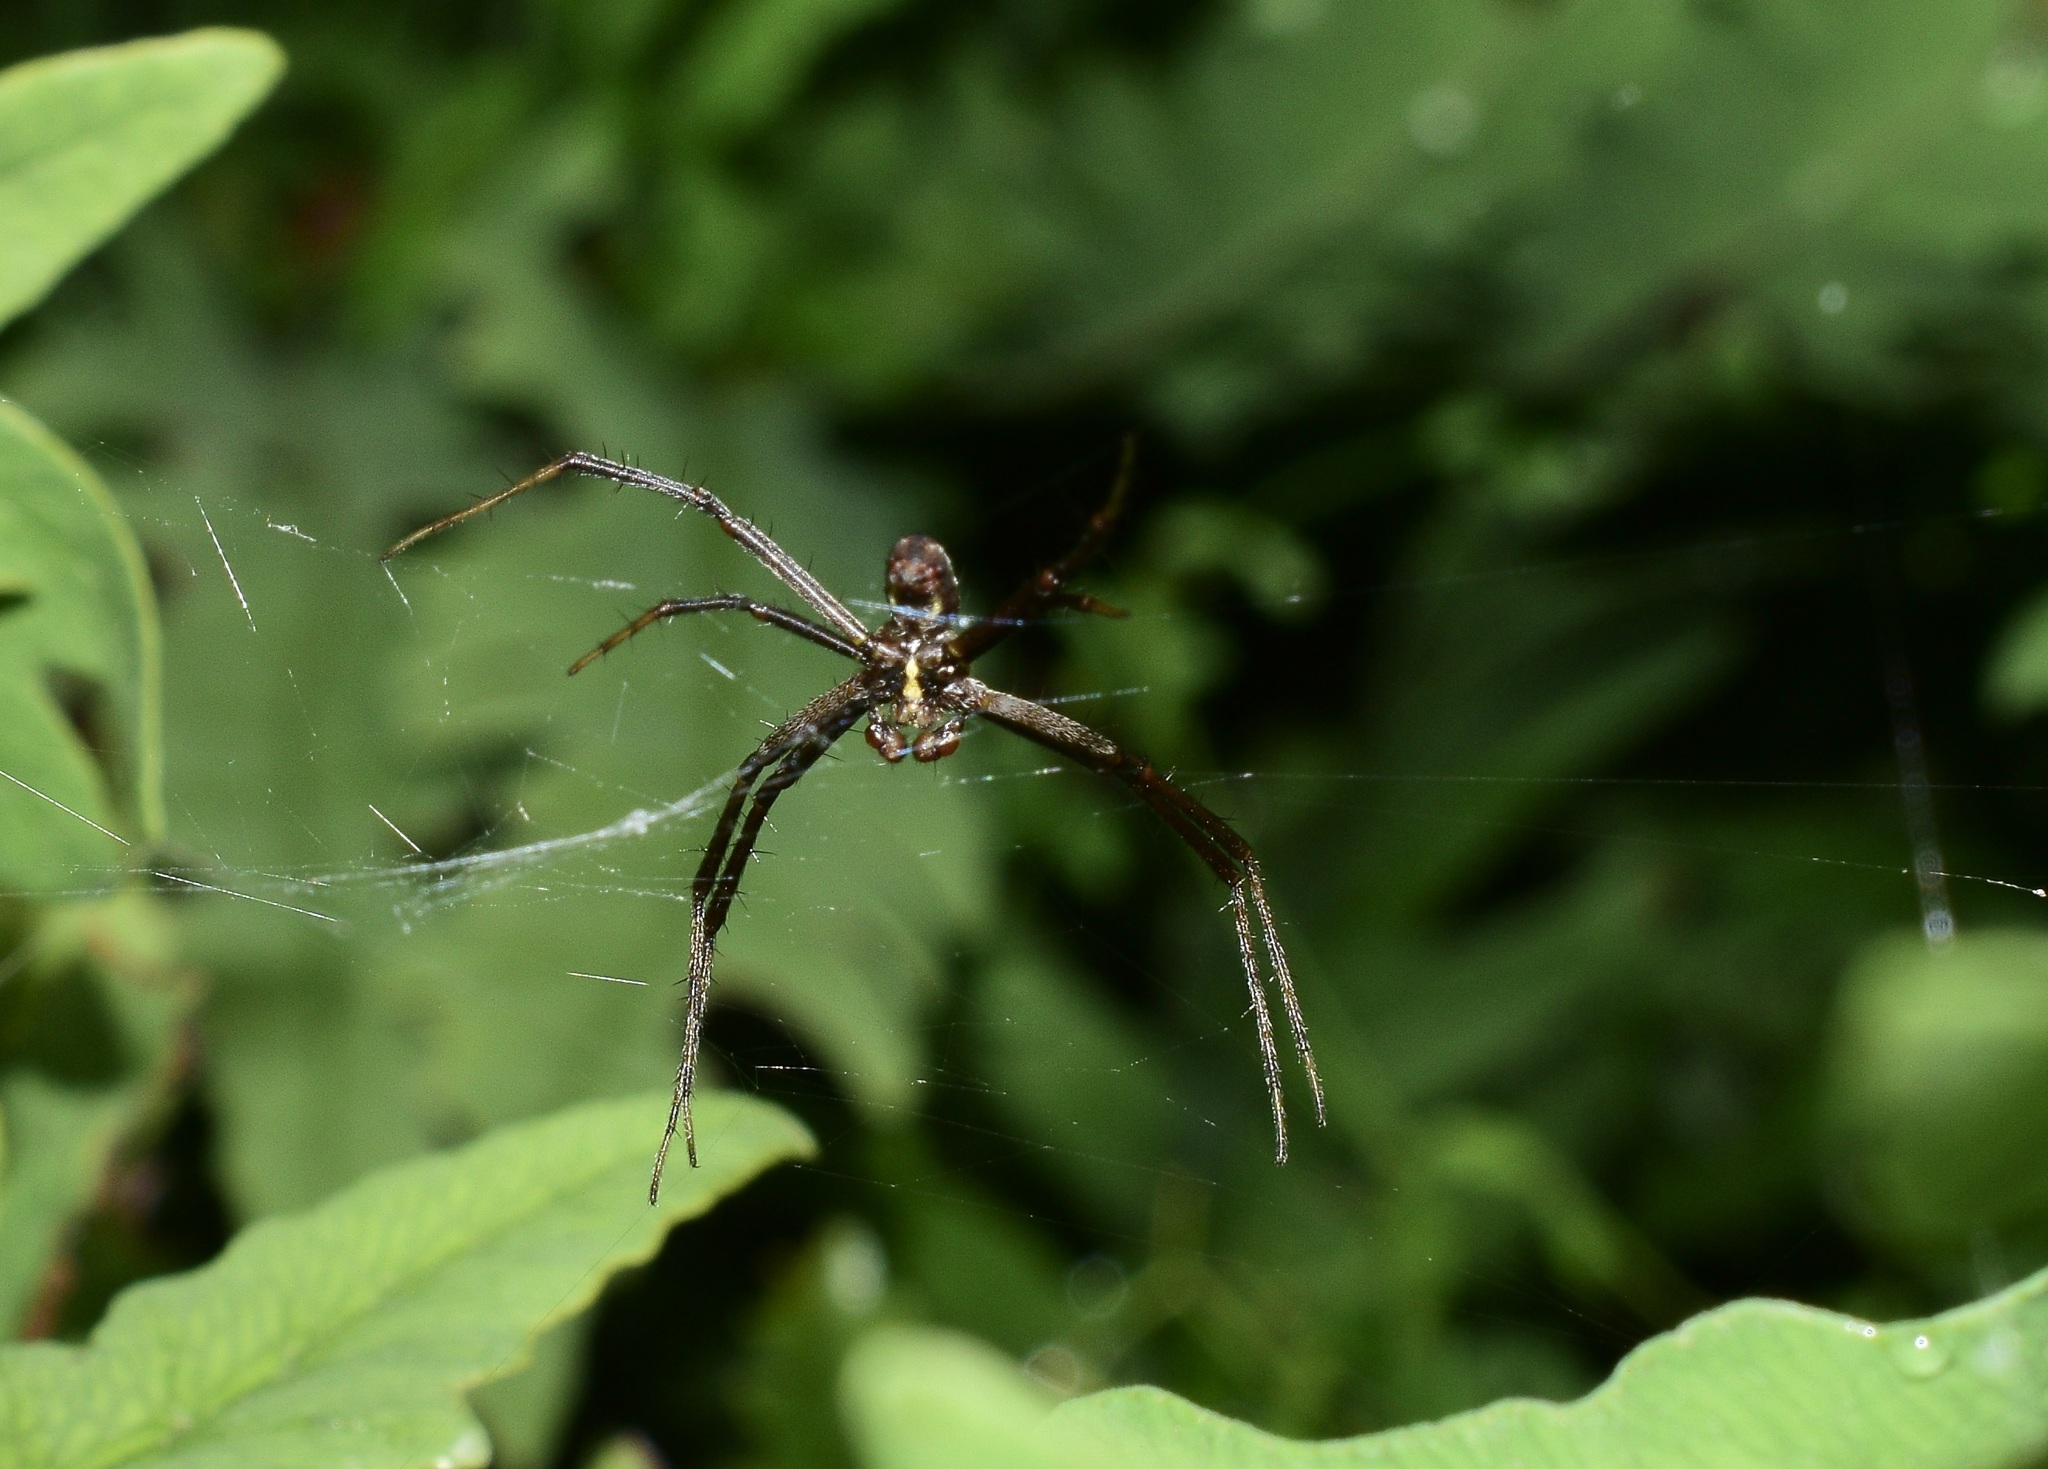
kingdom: Animalia
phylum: Arthropoda
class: Arachnida
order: Araneae
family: Araneidae
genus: Argiope
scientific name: Argiope aurantia
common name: Orb weavers
